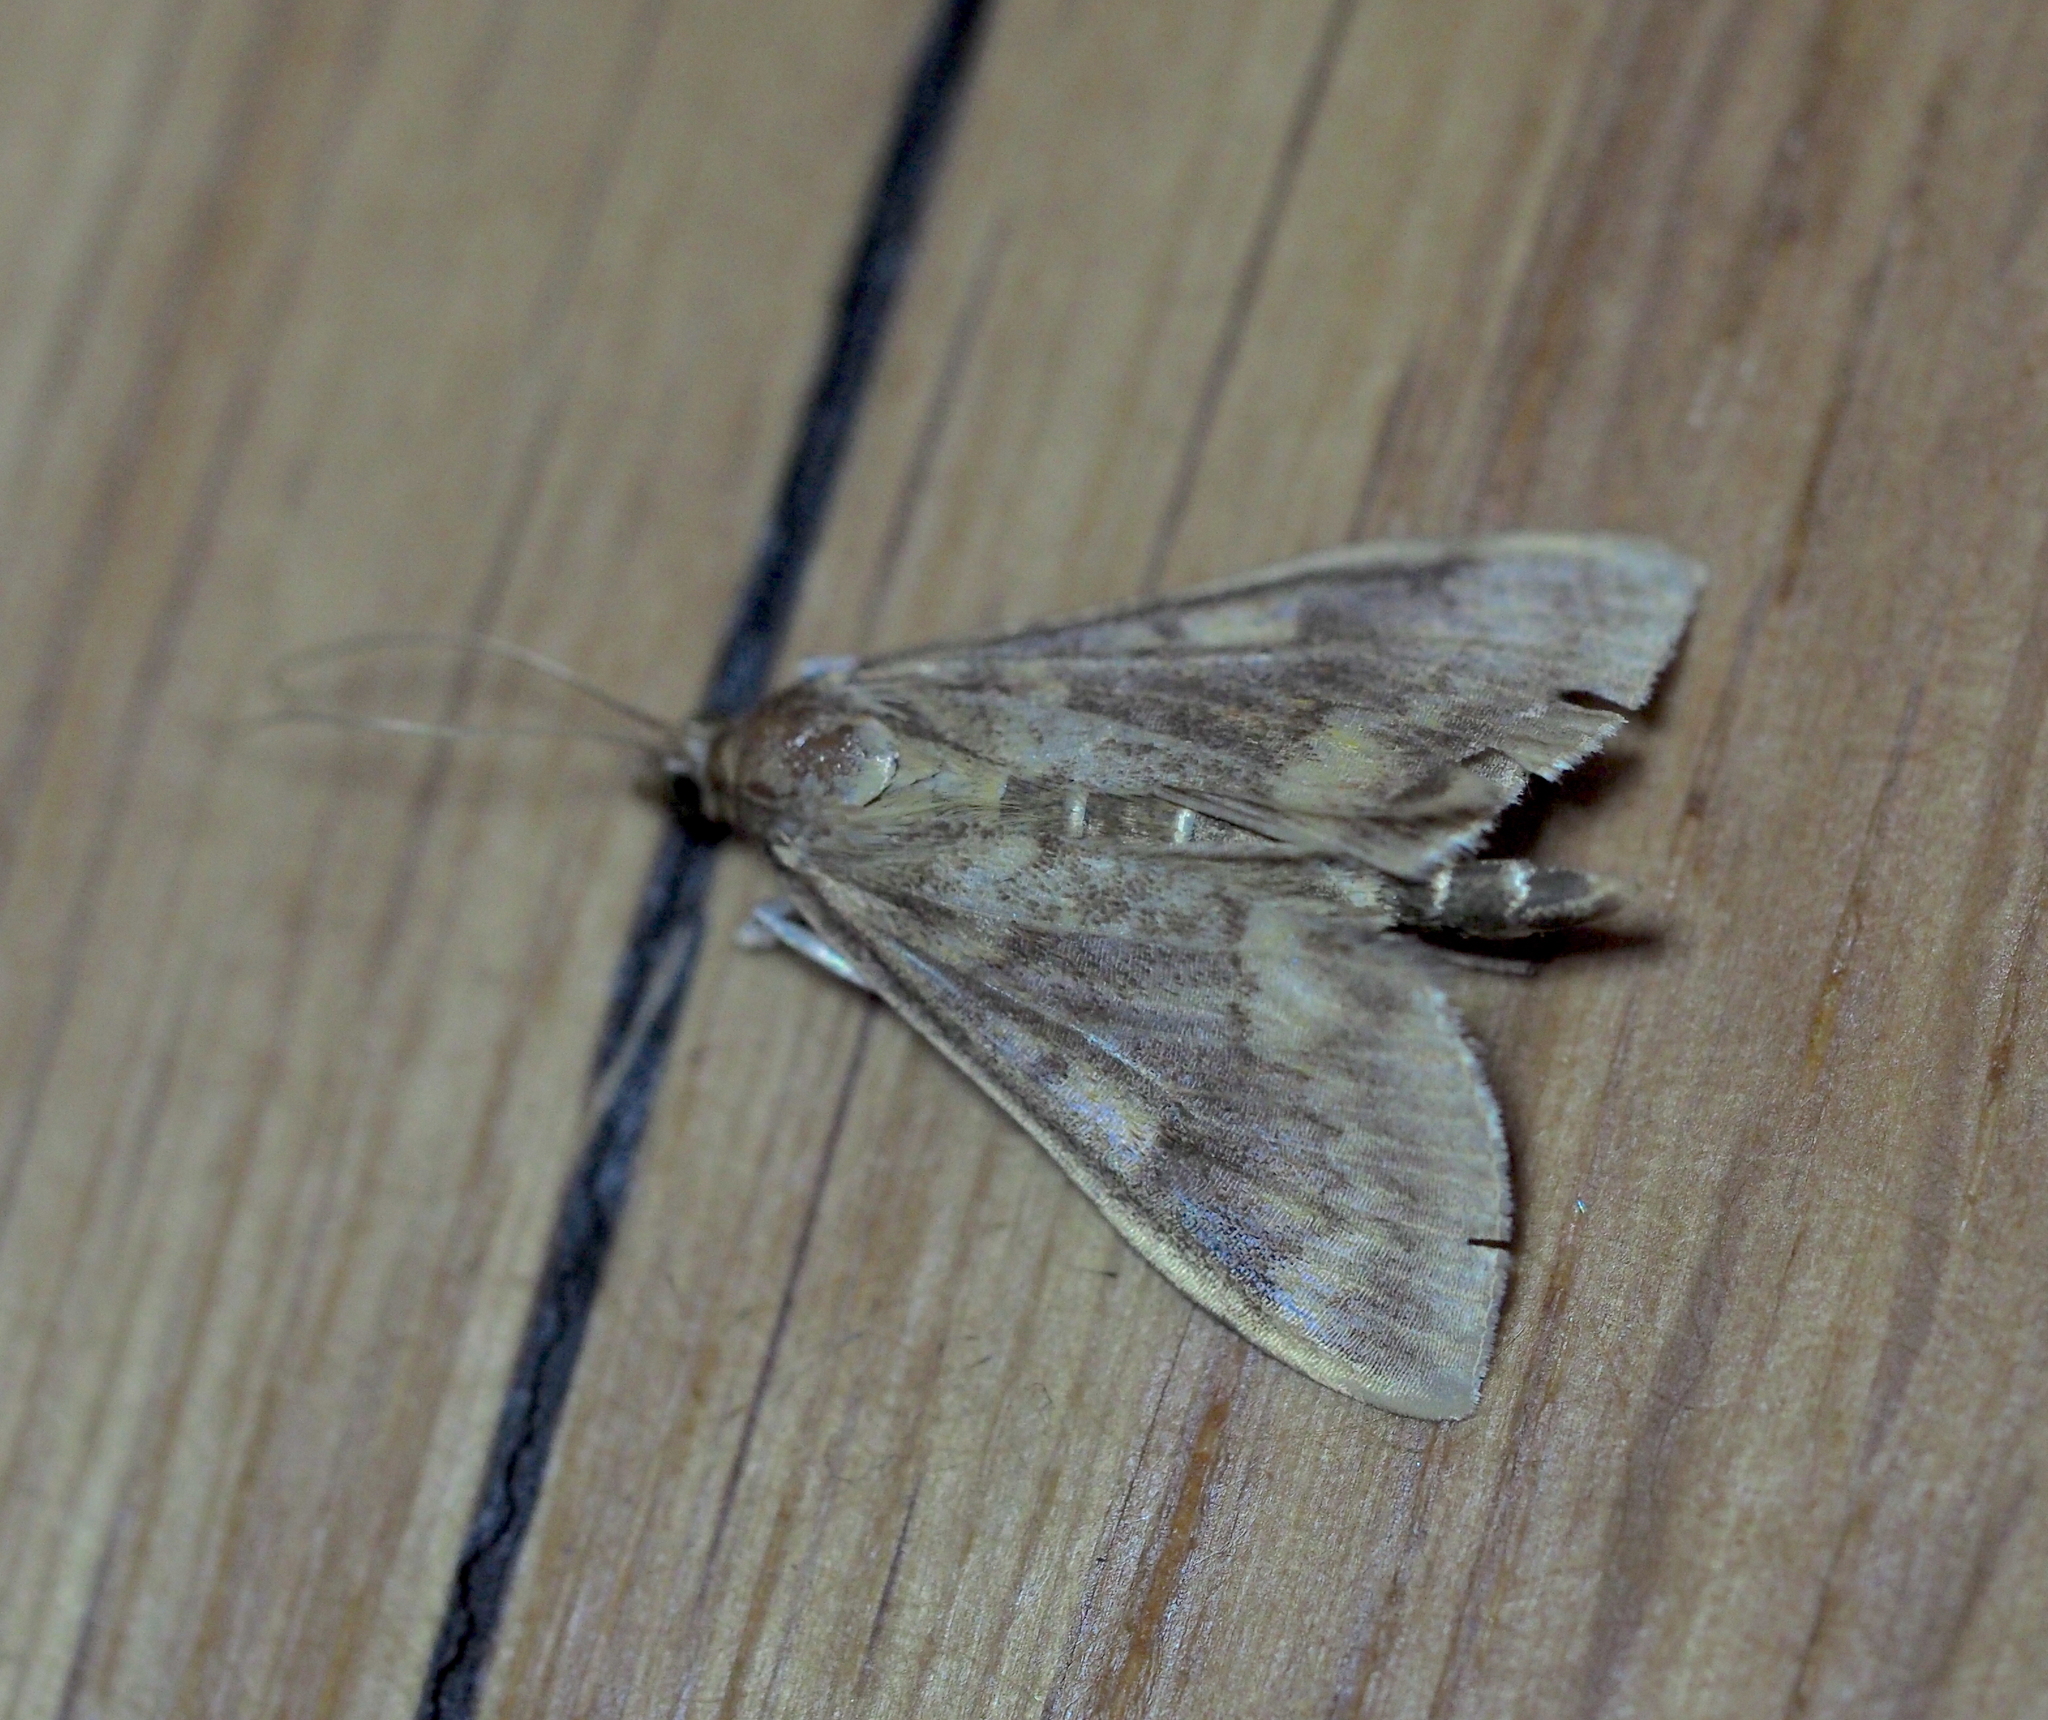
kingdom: Animalia
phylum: Arthropoda
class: Insecta
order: Lepidoptera
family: Crambidae
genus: Ostrinia
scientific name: Ostrinia nubilalis
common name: European corn borer
